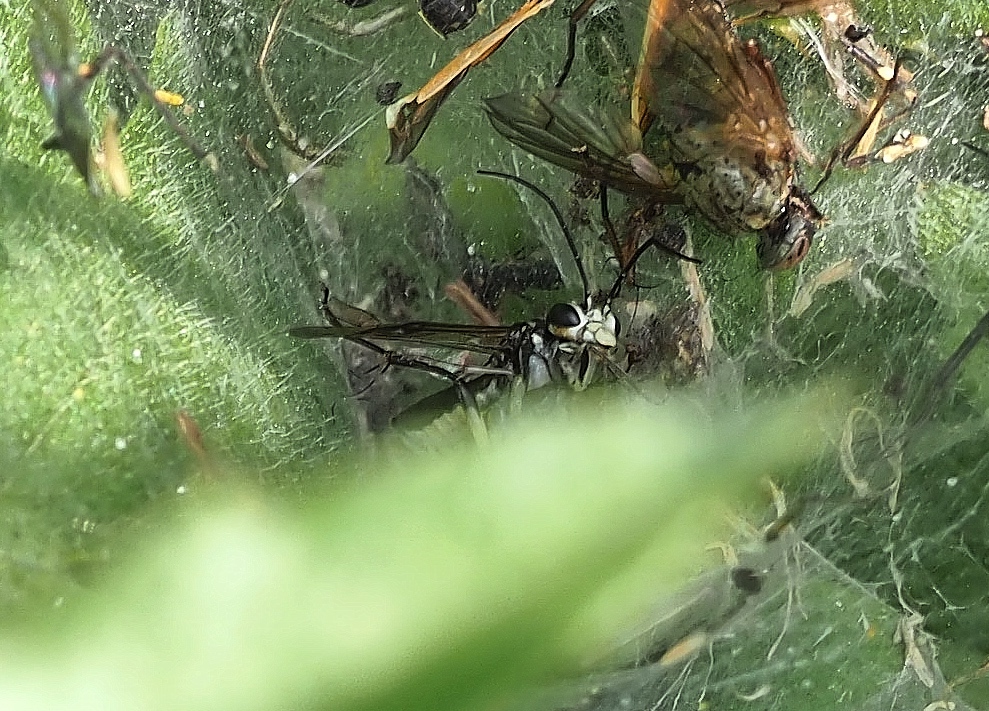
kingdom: Animalia
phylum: Arthropoda
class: Insecta
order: Hymenoptera
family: Tenthredinidae
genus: Pachyprotasis
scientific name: Pachyprotasis rapae
